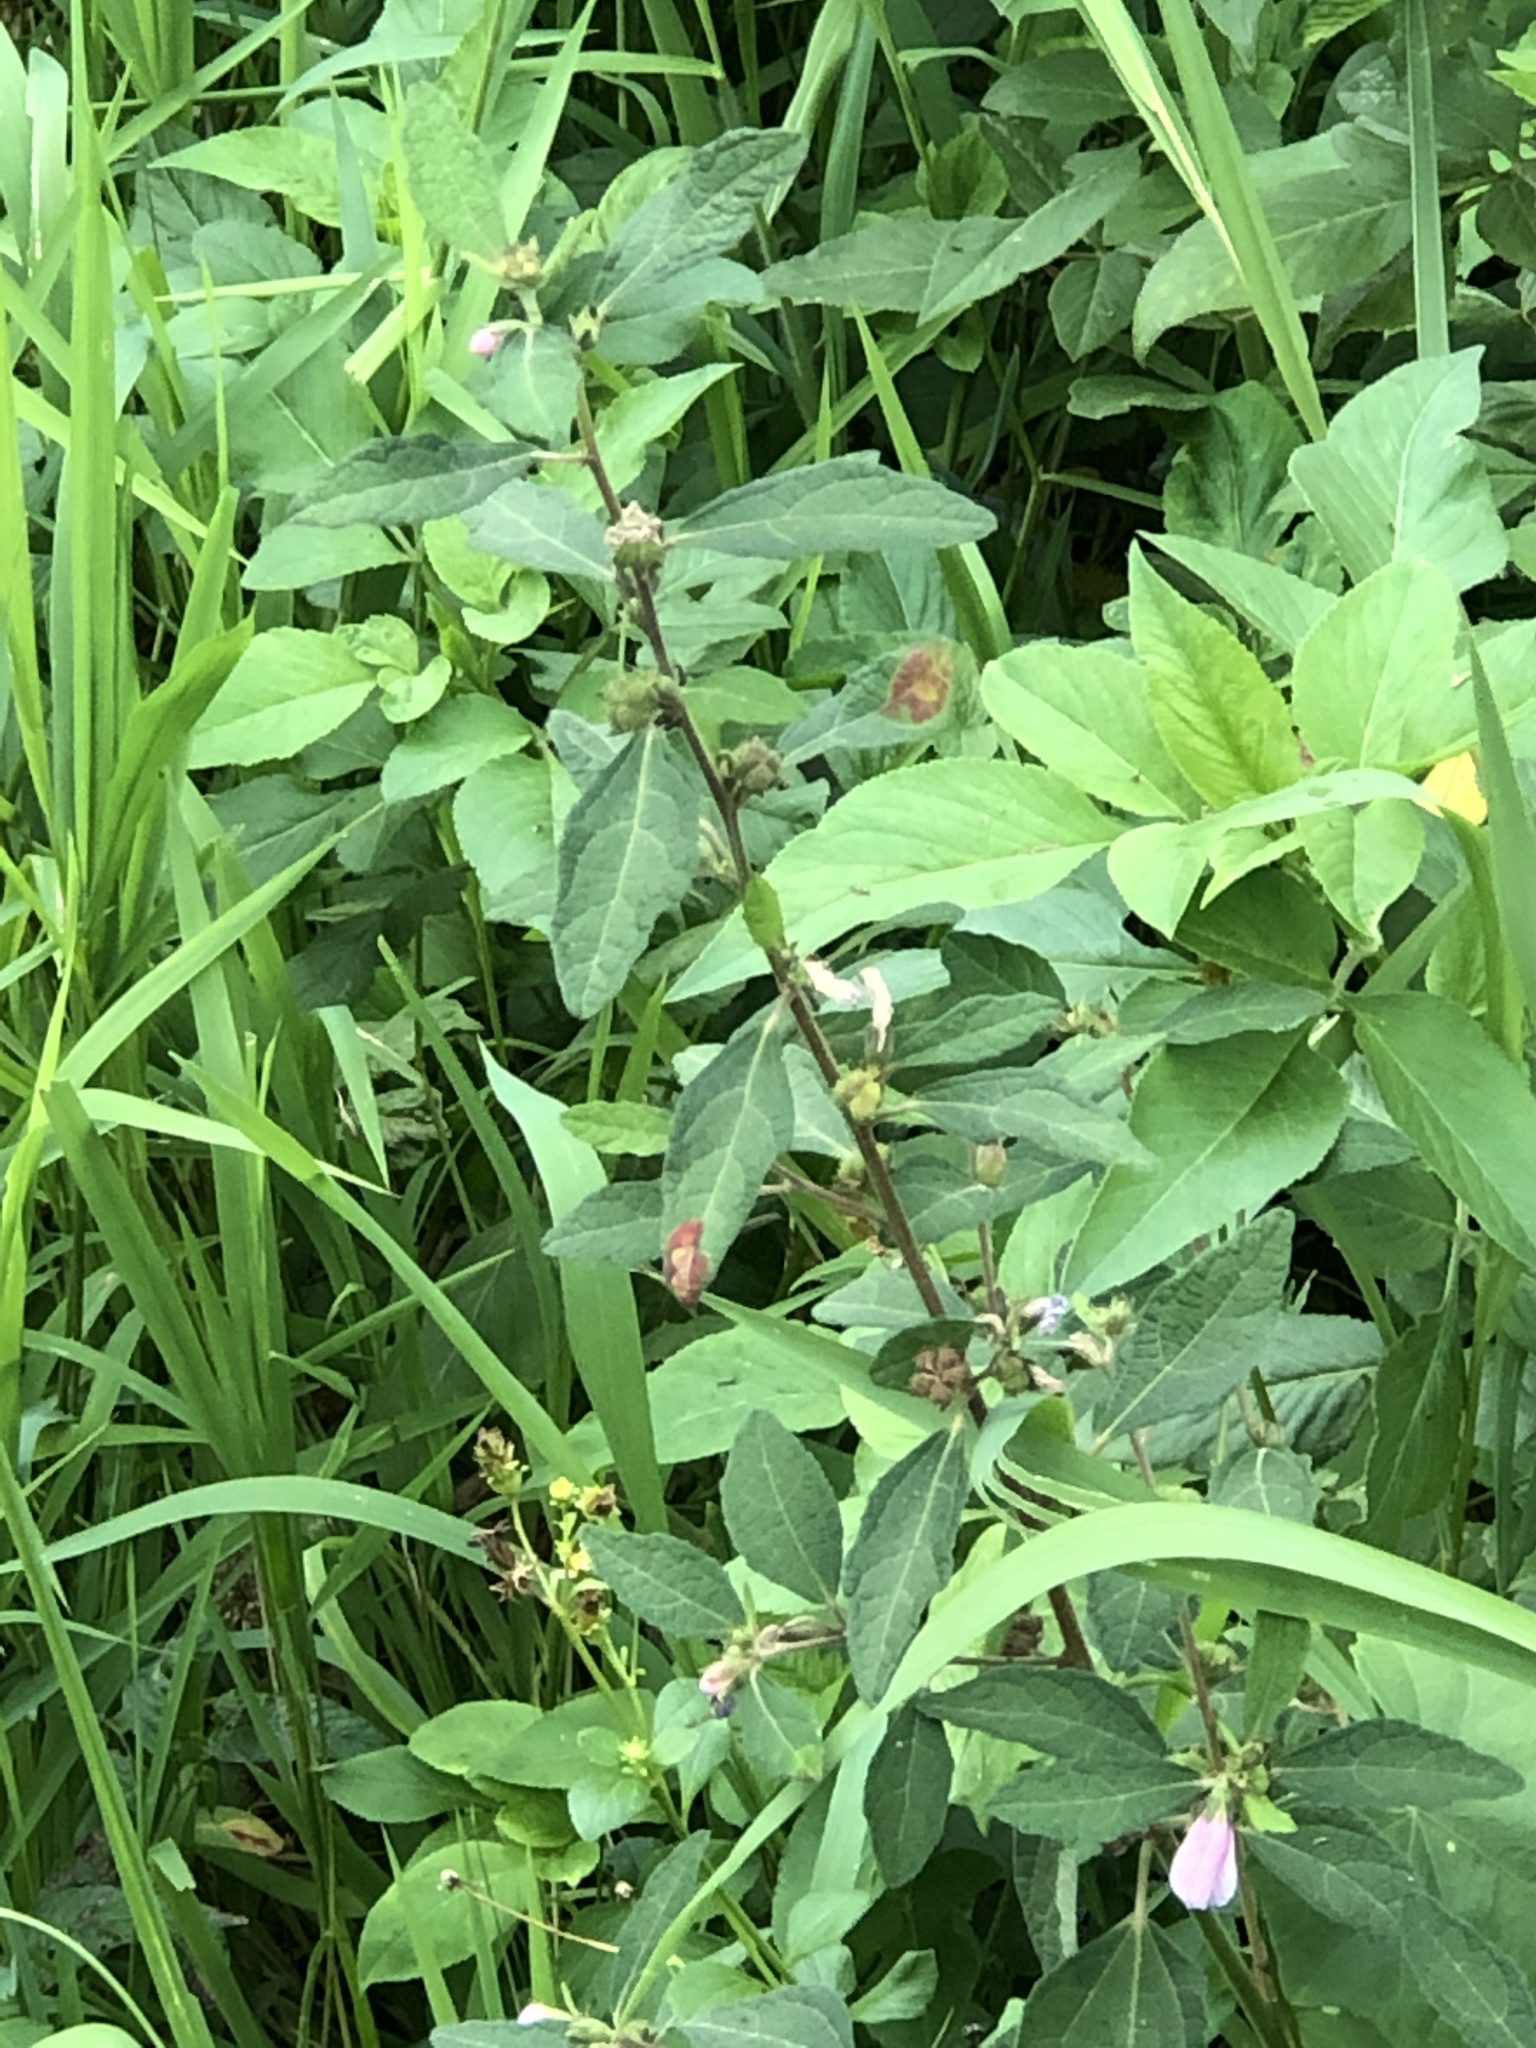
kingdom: Plantae
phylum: Tracheophyta
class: Magnoliopsida
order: Malvales
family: Malvaceae
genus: Urena
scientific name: Urena lobata
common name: Caesarweed
